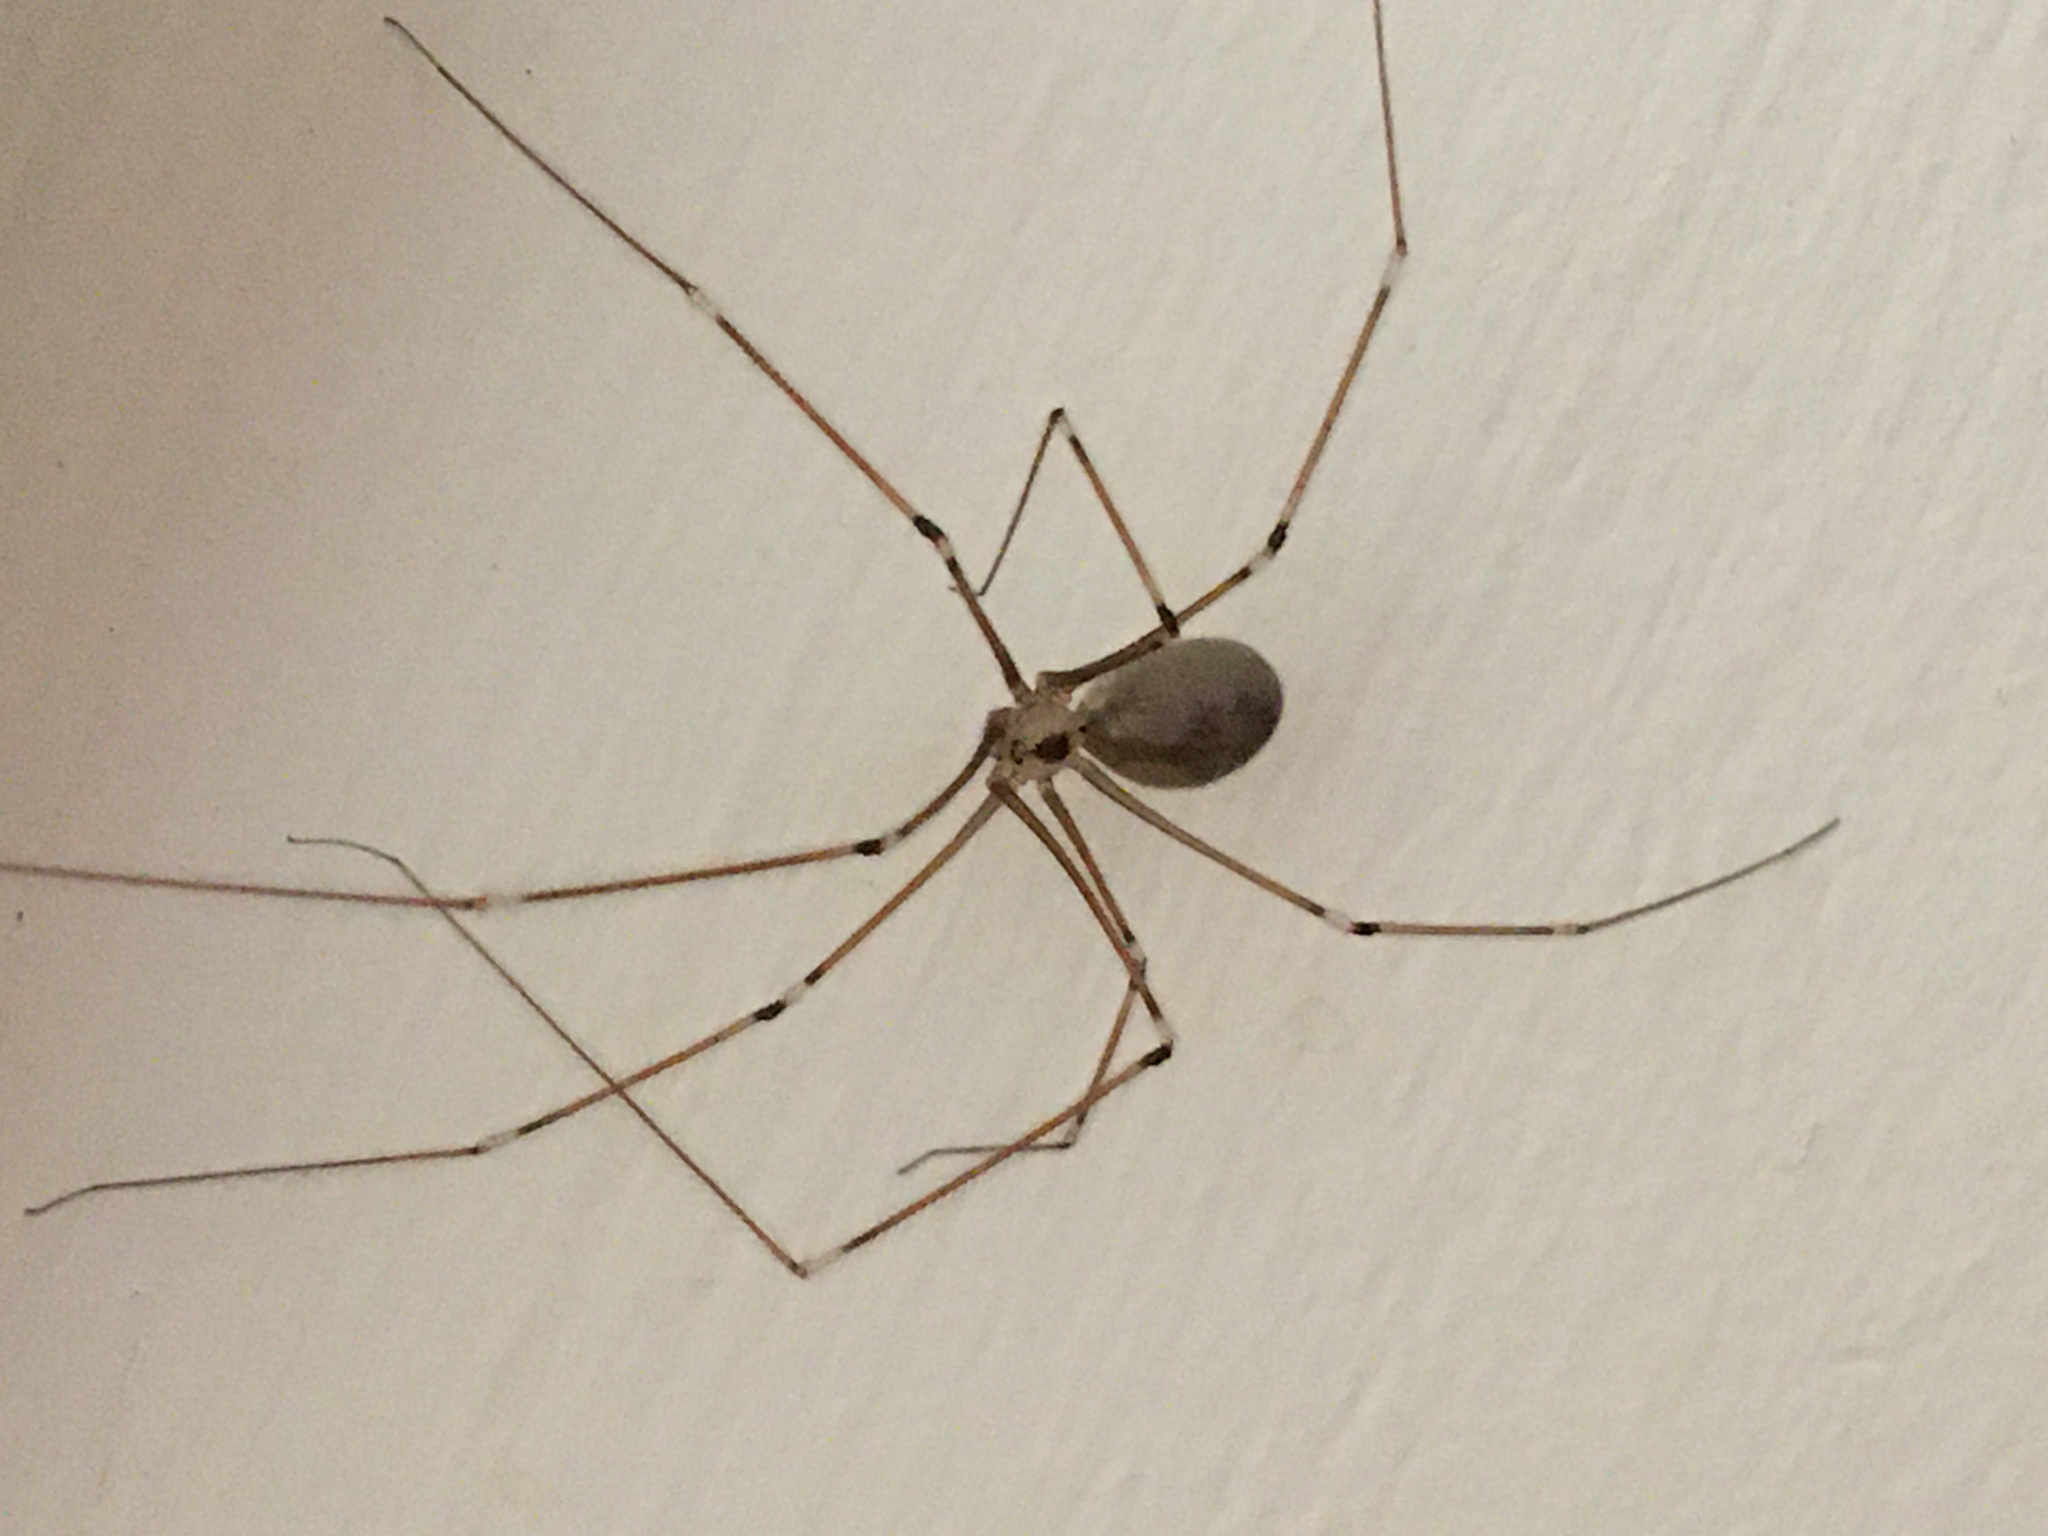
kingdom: Animalia
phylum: Arthropoda
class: Arachnida
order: Araneae
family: Pholcidae
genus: Pholcus
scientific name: Pholcus phalangioides
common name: Longbodied cellar spider
